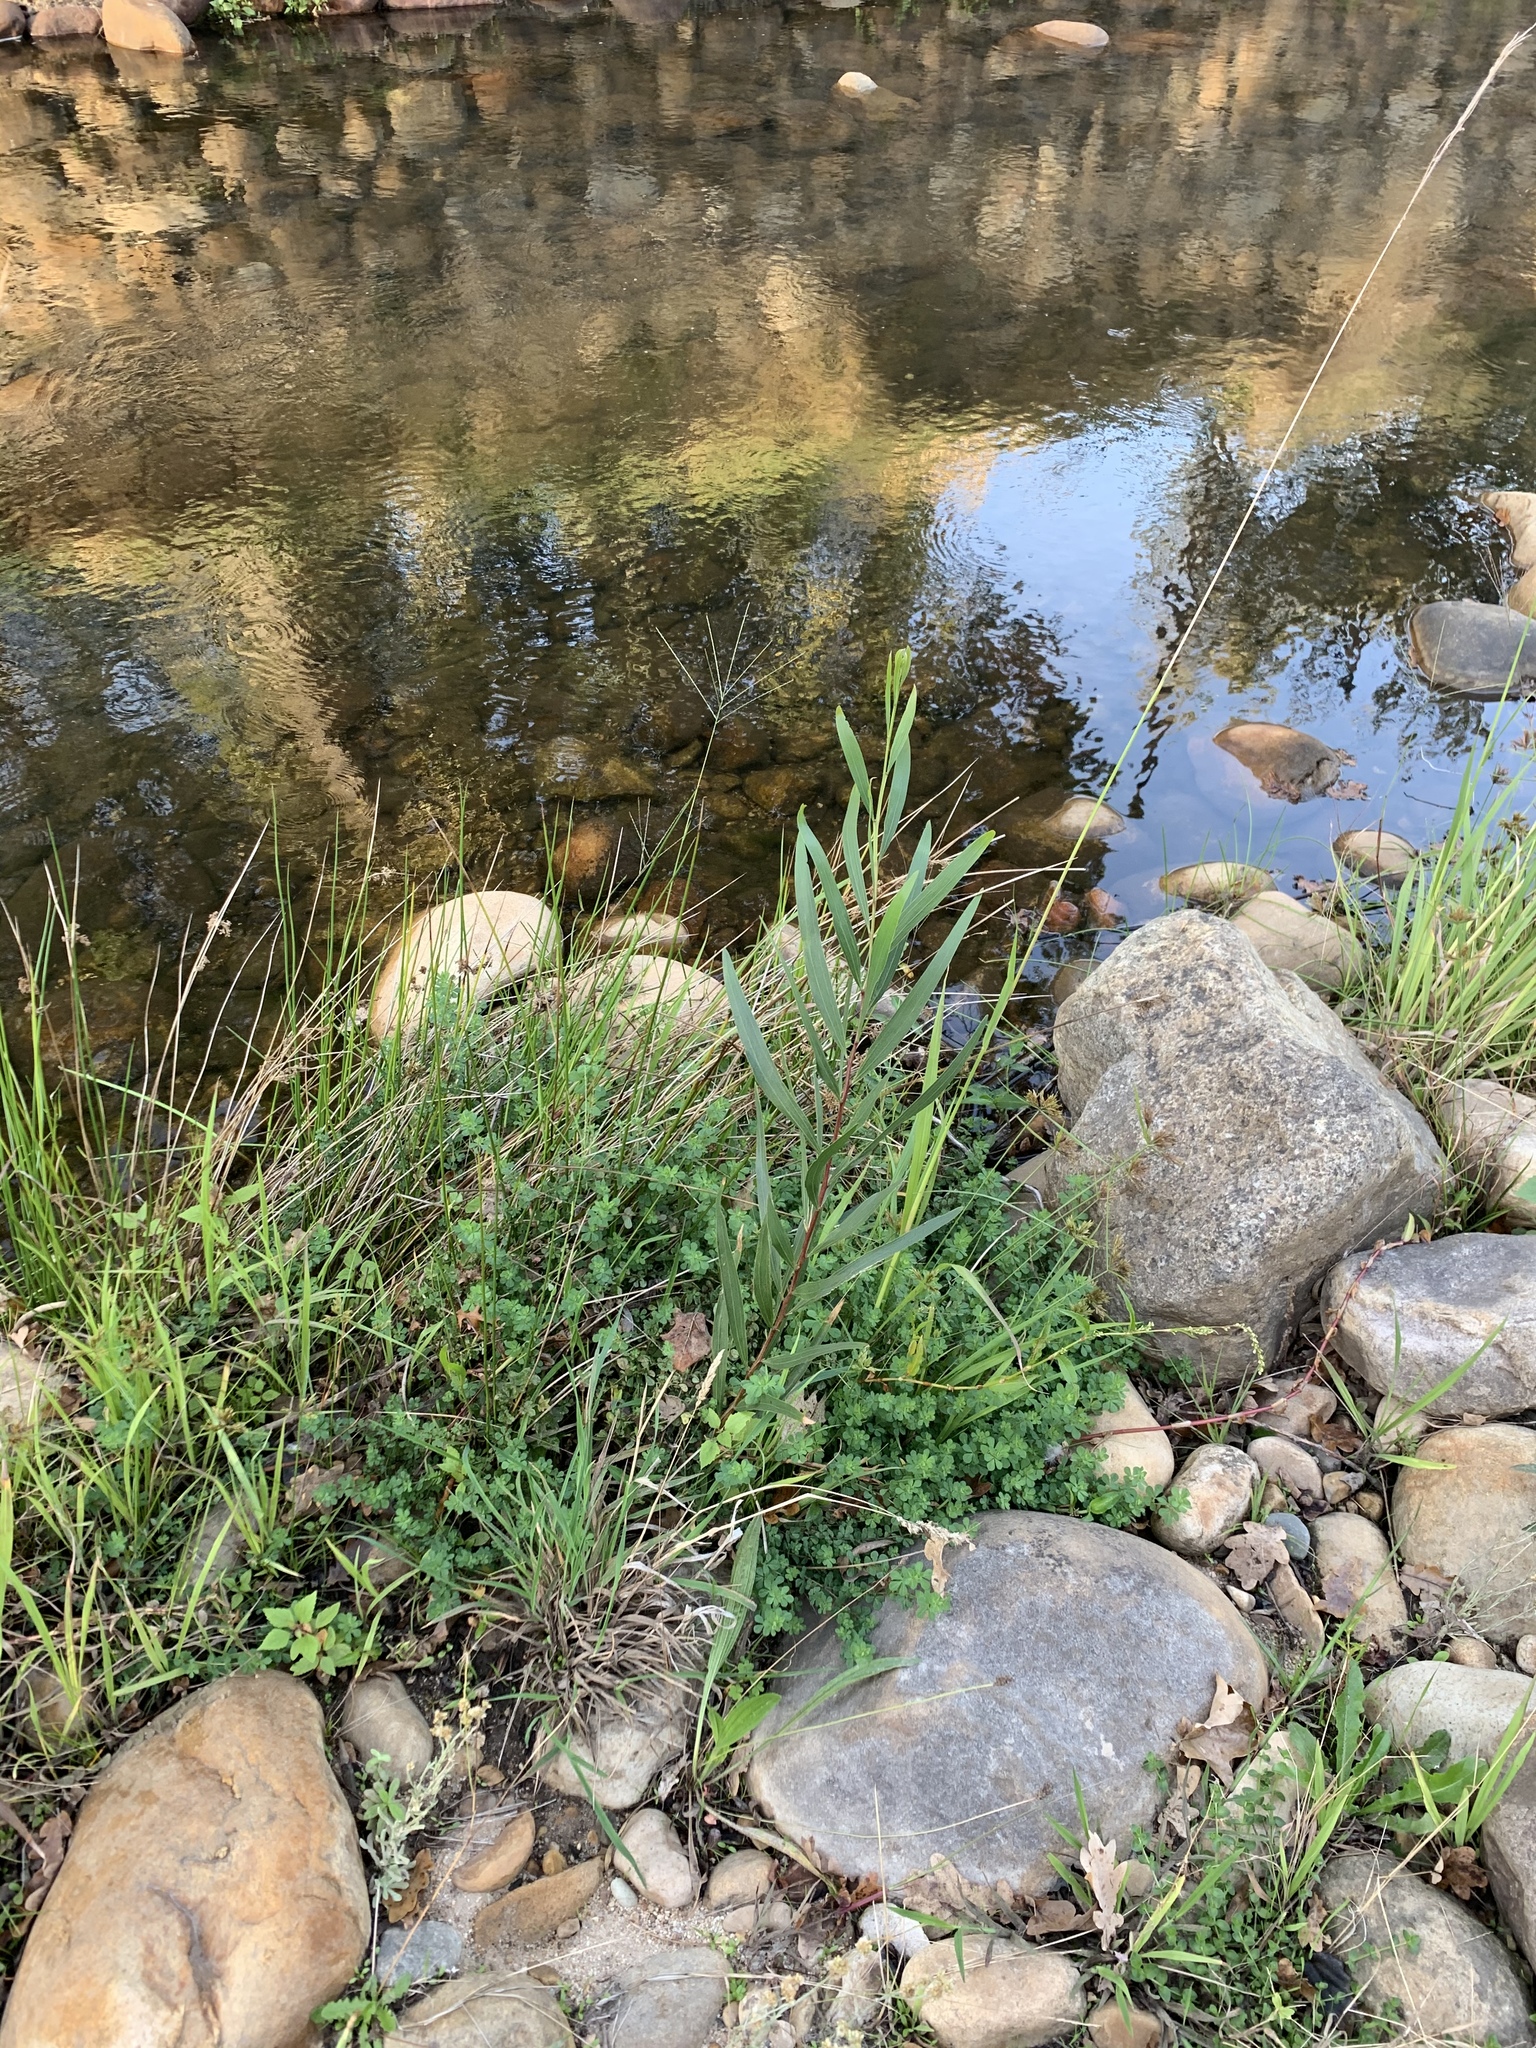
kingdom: Plantae
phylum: Tracheophyta
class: Magnoliopsida
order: Fabales
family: Fabaceae
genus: Acacia
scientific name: Acacia longifolia
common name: Sydney golden wattle
